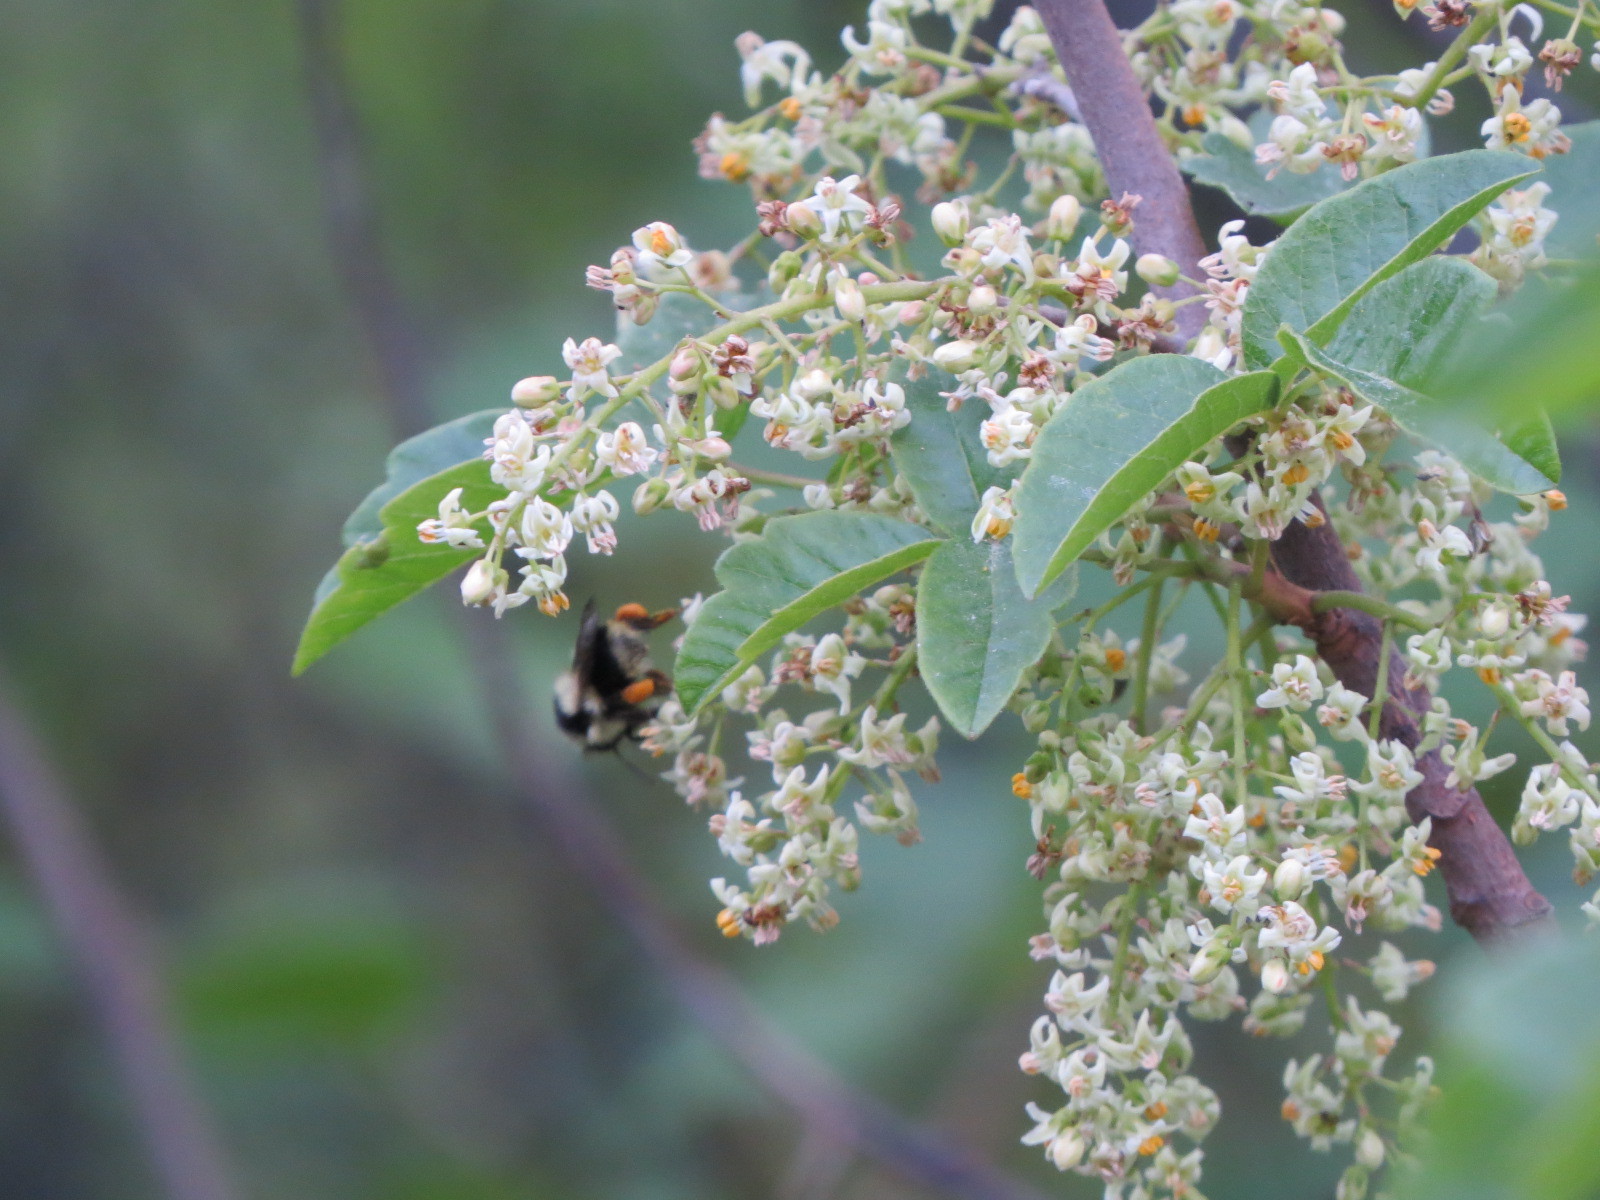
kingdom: Plantae
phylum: Tracheophyta
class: Magnoliopsida
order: Sapindales
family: Anacardiaceae
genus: Toxicodendron
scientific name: Toxicodendron diversilobum
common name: Pacific poison-oak
